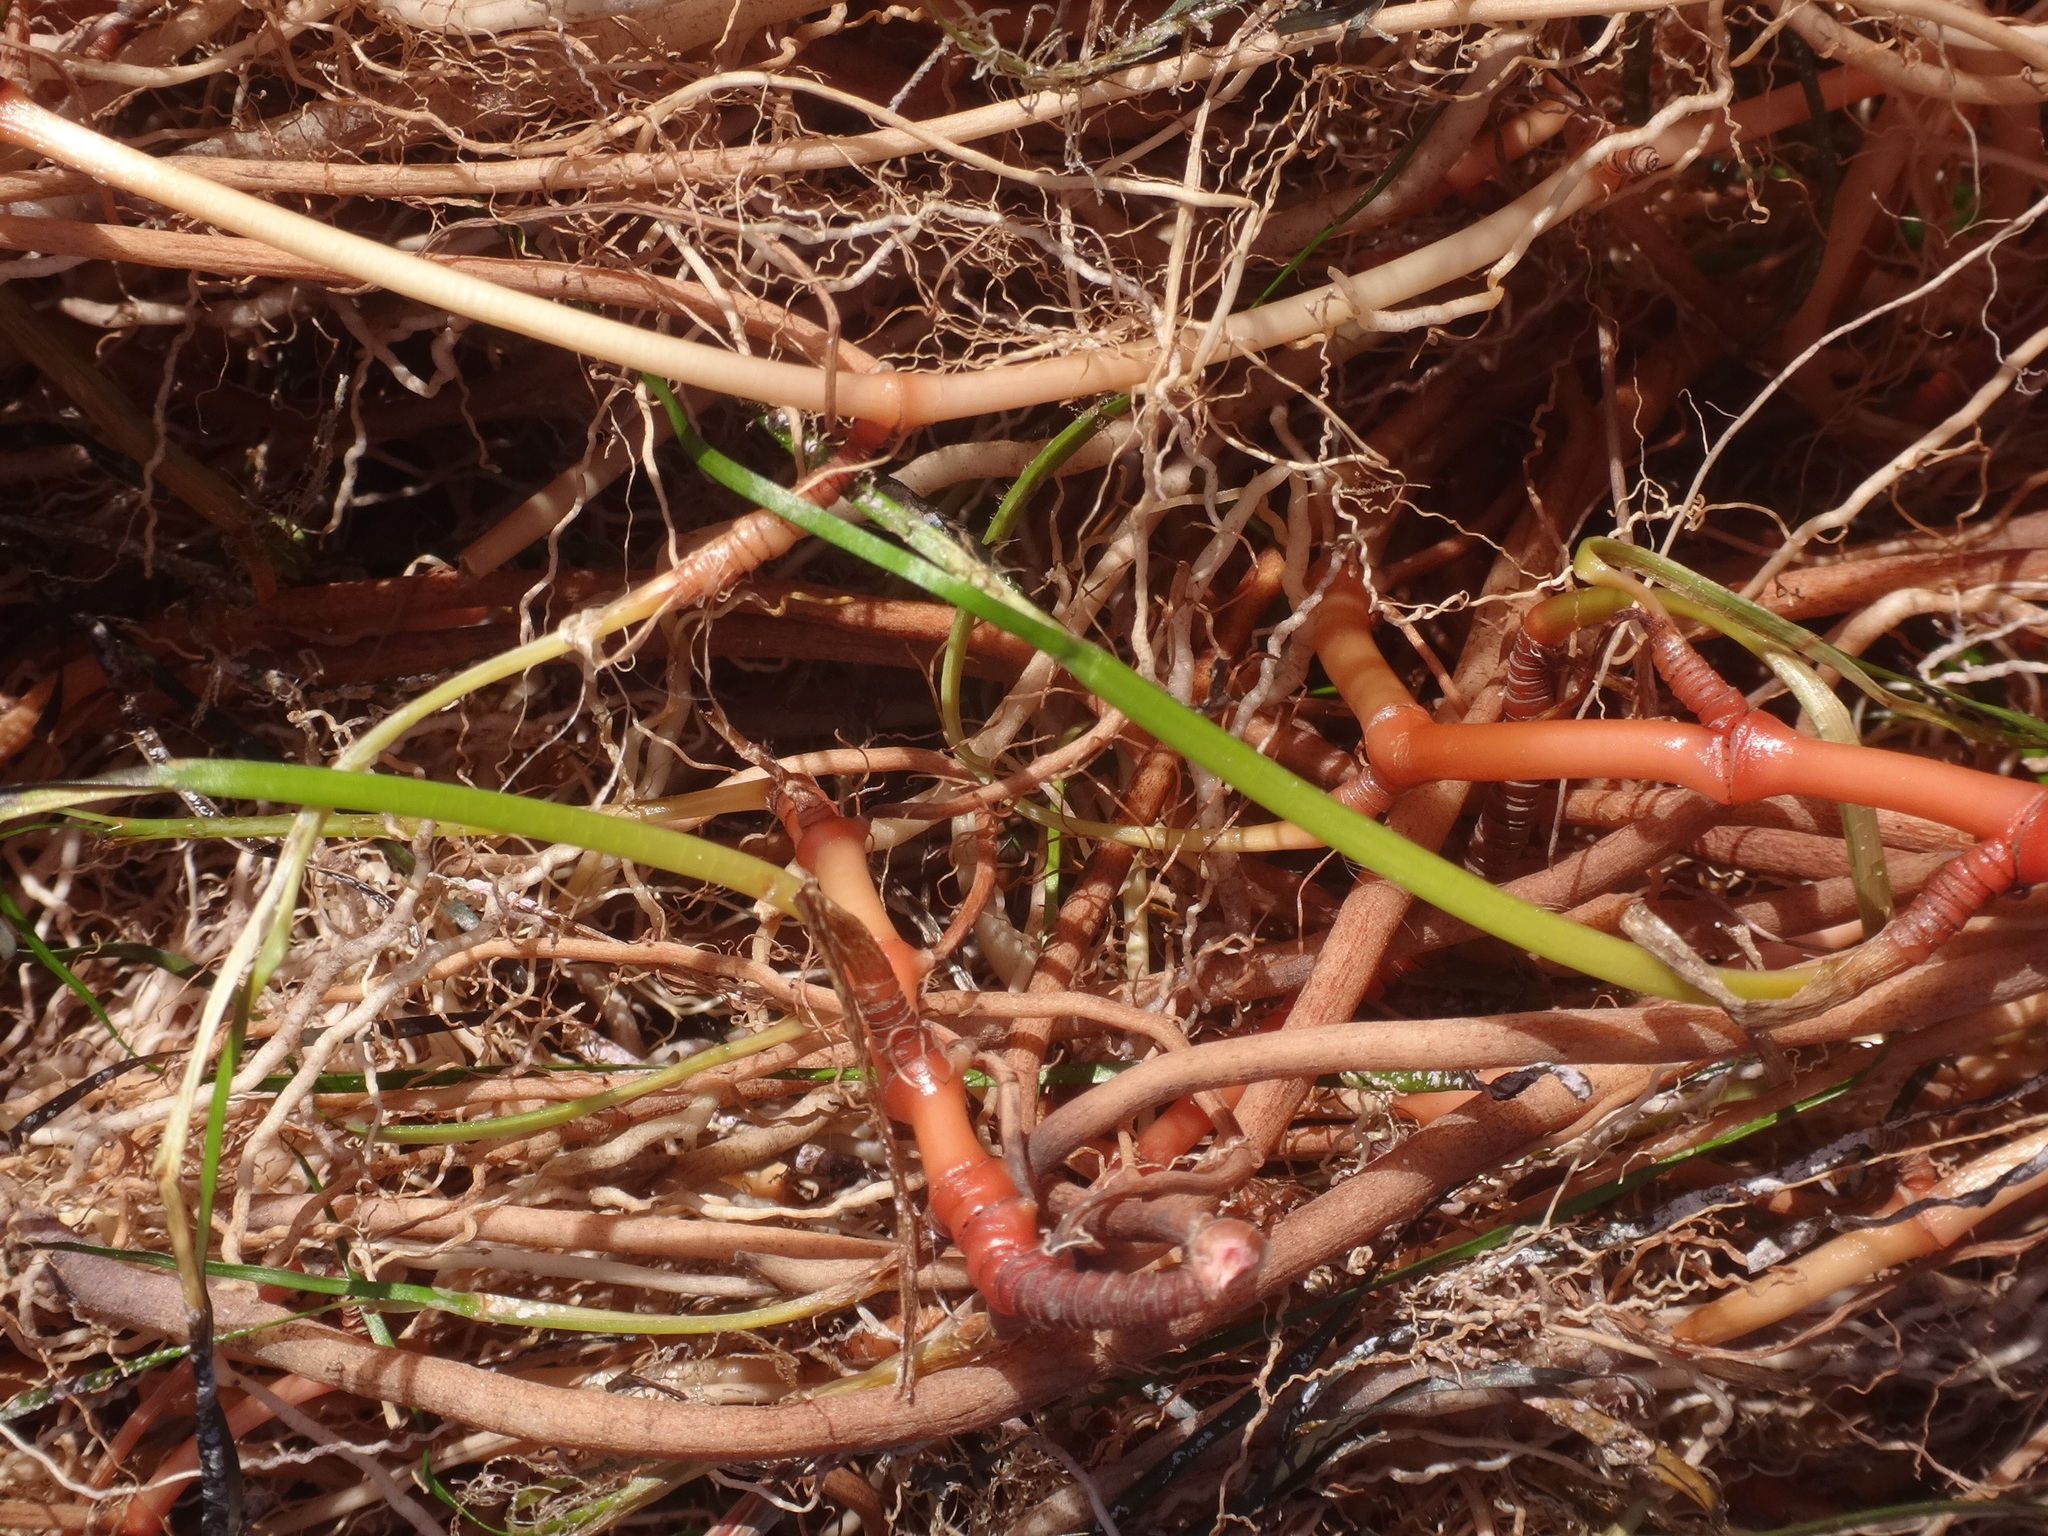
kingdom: Plantae
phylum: Tracheophyta
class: Liliopsida
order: Alismatales
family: Cymodoceaceae
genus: Cymodocea
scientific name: Cymodocea nodosa
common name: Slender seagrass
